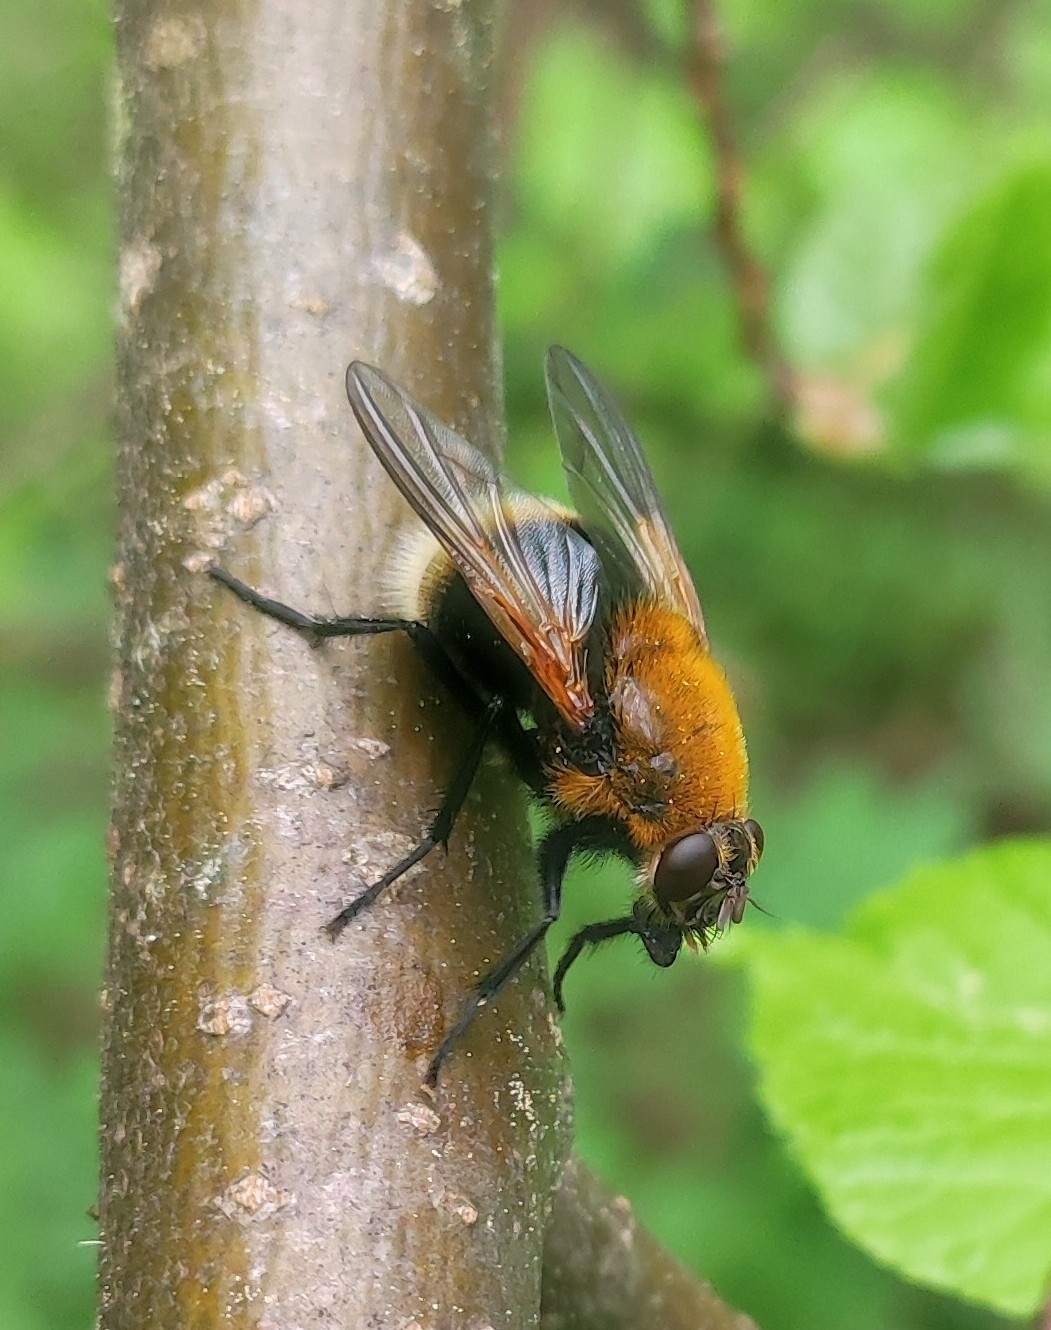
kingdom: Animalia
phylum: Arthropoda
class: Insecta
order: Diptera
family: Muscidae
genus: Mesembrina
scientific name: Mesembrina mystacea
